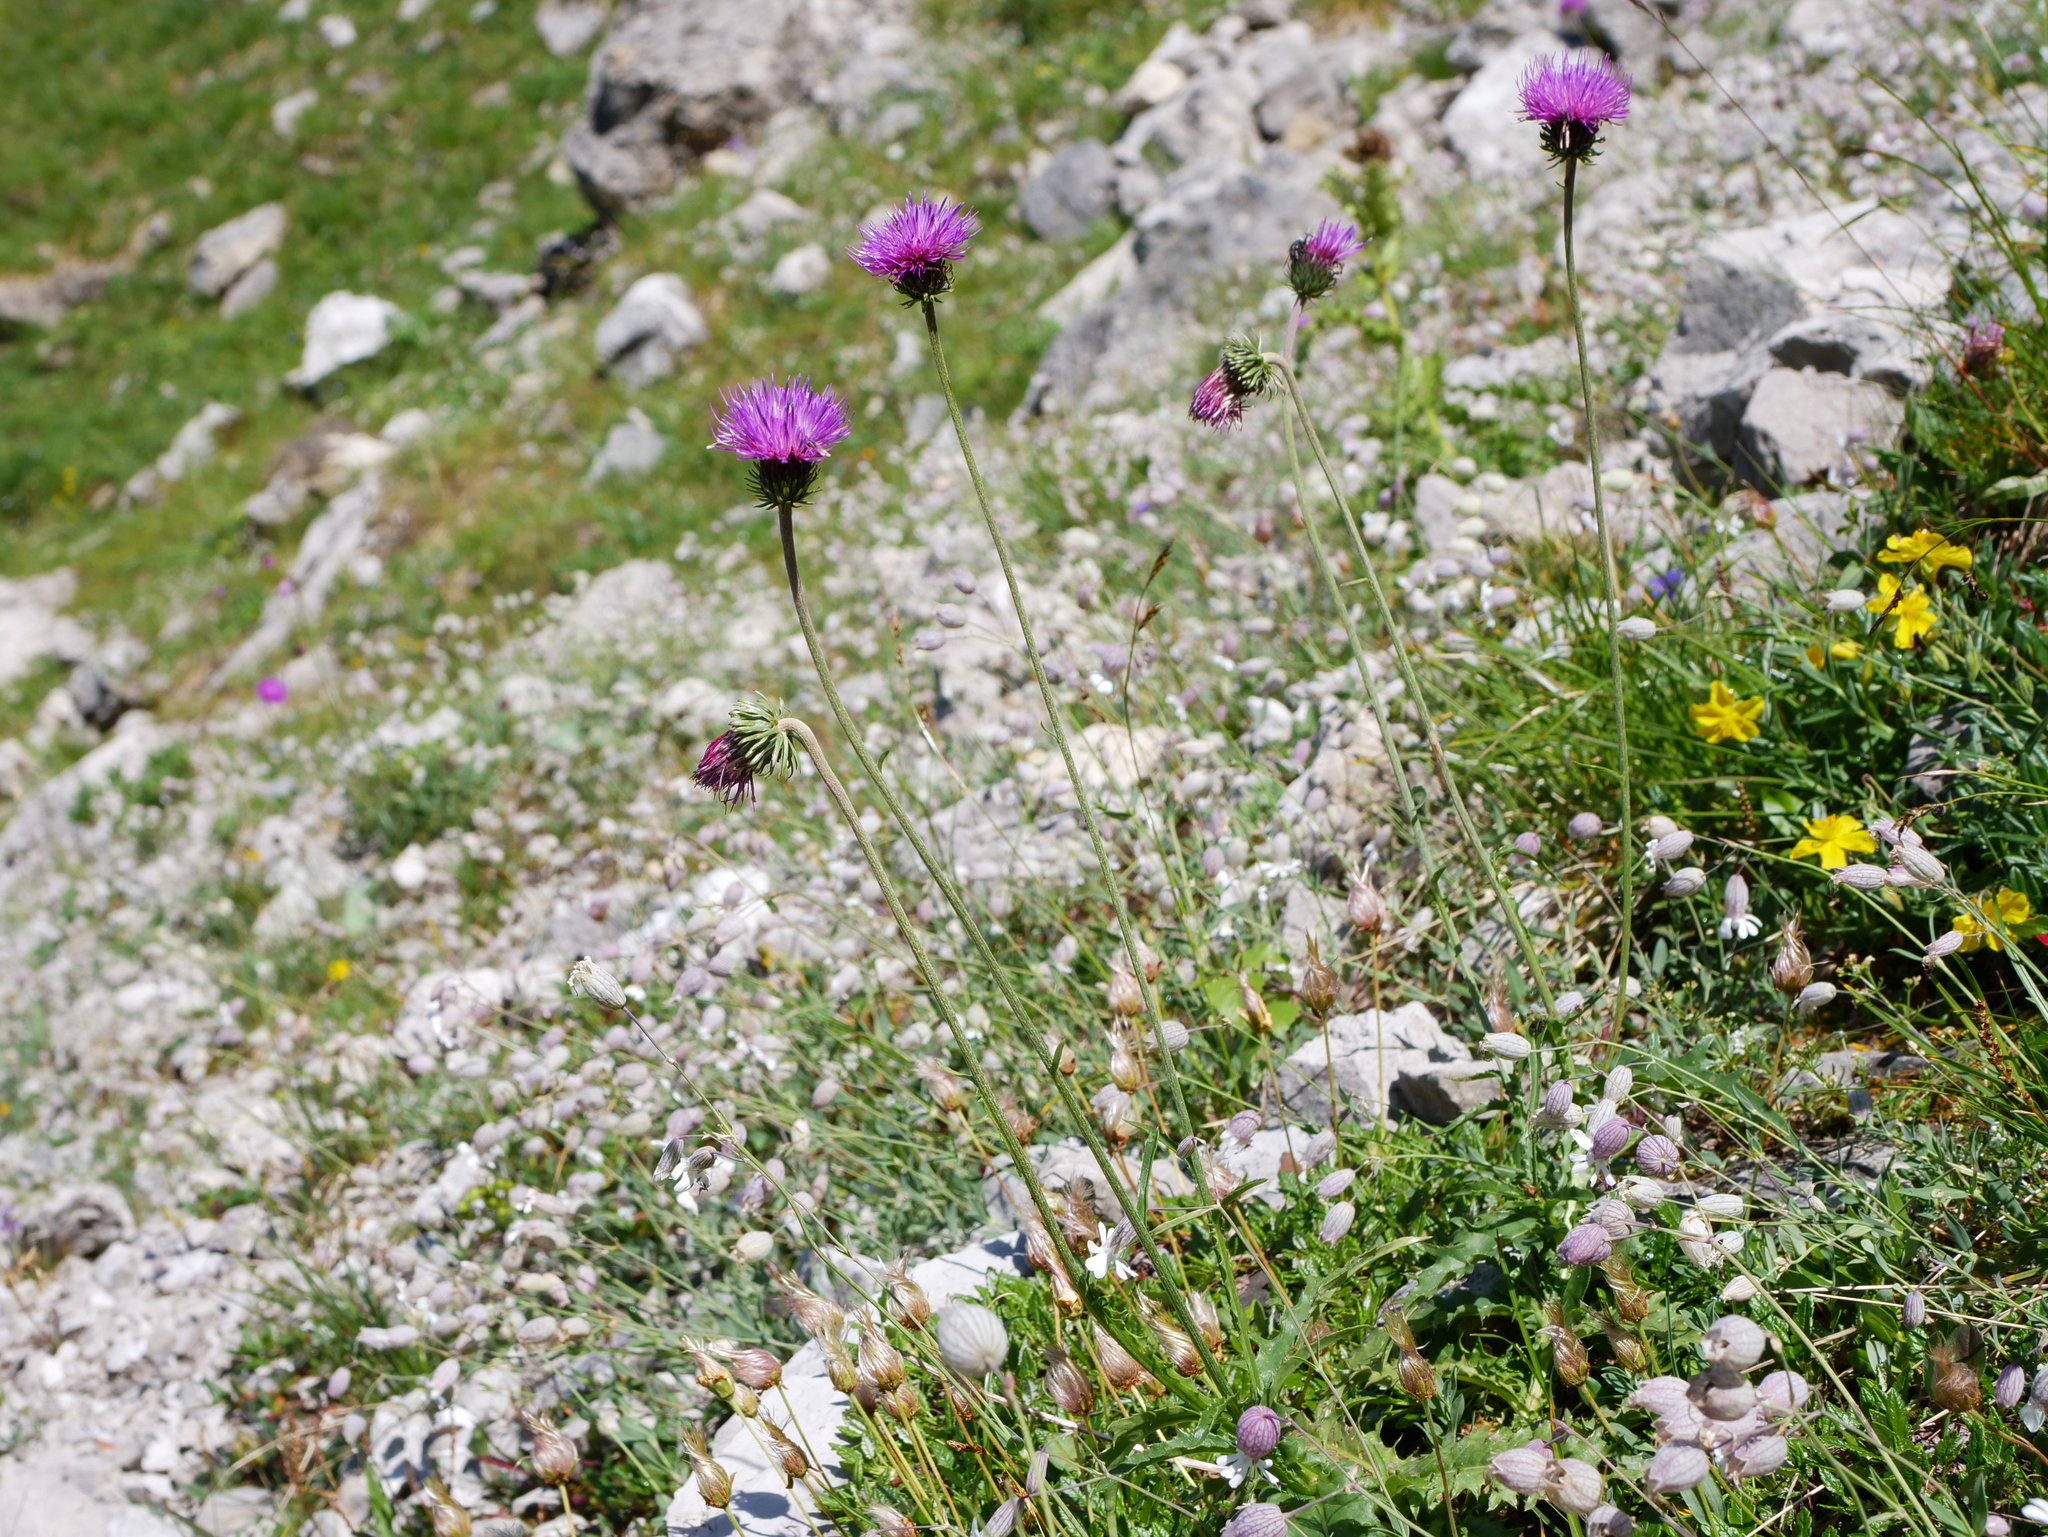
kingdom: Plantae
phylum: Tracheophyta
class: Magnoliopsida
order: Asterales
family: Asteraceae
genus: Carduus
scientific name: Carduus defloratus
